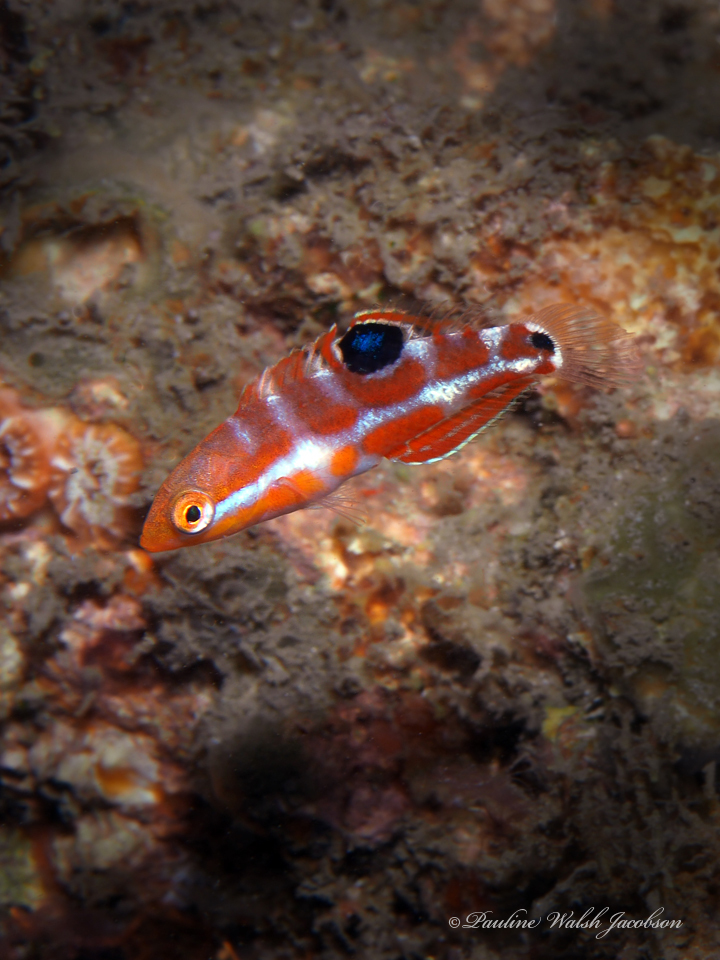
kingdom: Animalia
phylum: Chordata
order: Perciformes
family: Labridae
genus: Halichoeres
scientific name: Halichoeres radiatus
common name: Puddingwife
